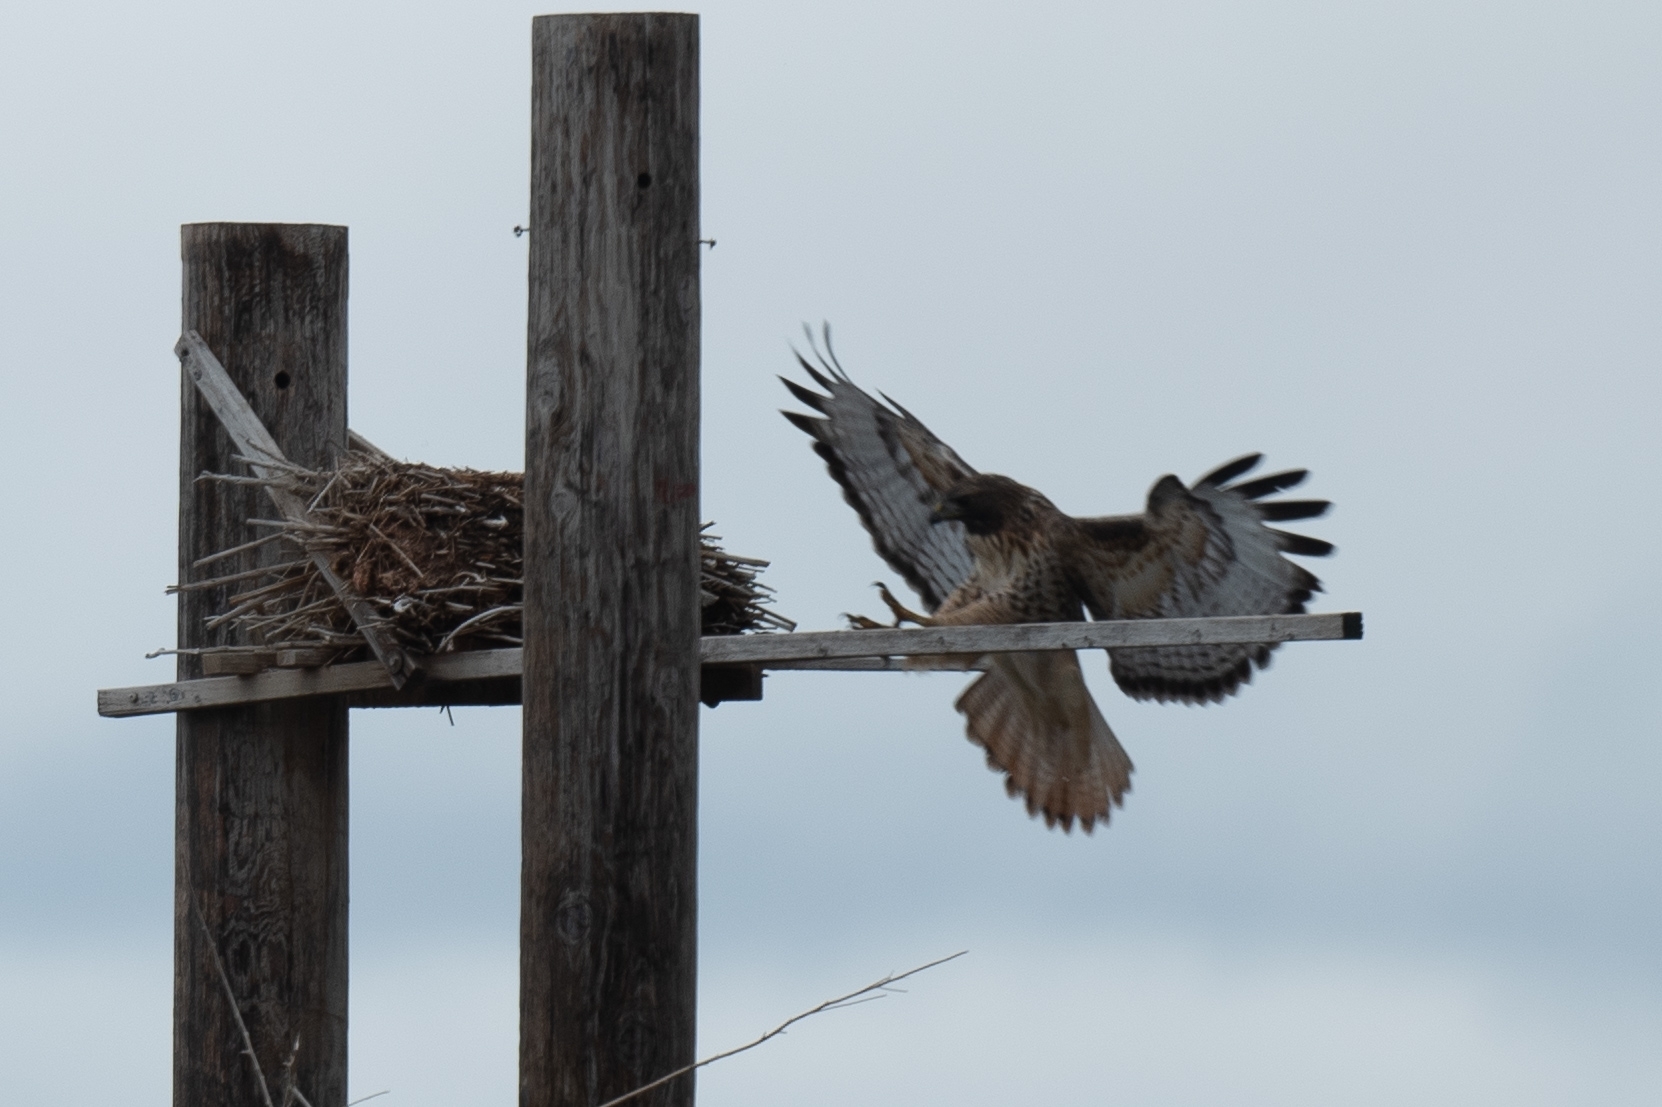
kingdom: Animalia
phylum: Chordata
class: Aves
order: Accipitriformes
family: Accipitridae
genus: Buteo
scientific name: Buteo jamaicensis
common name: Red-tailed hawk
